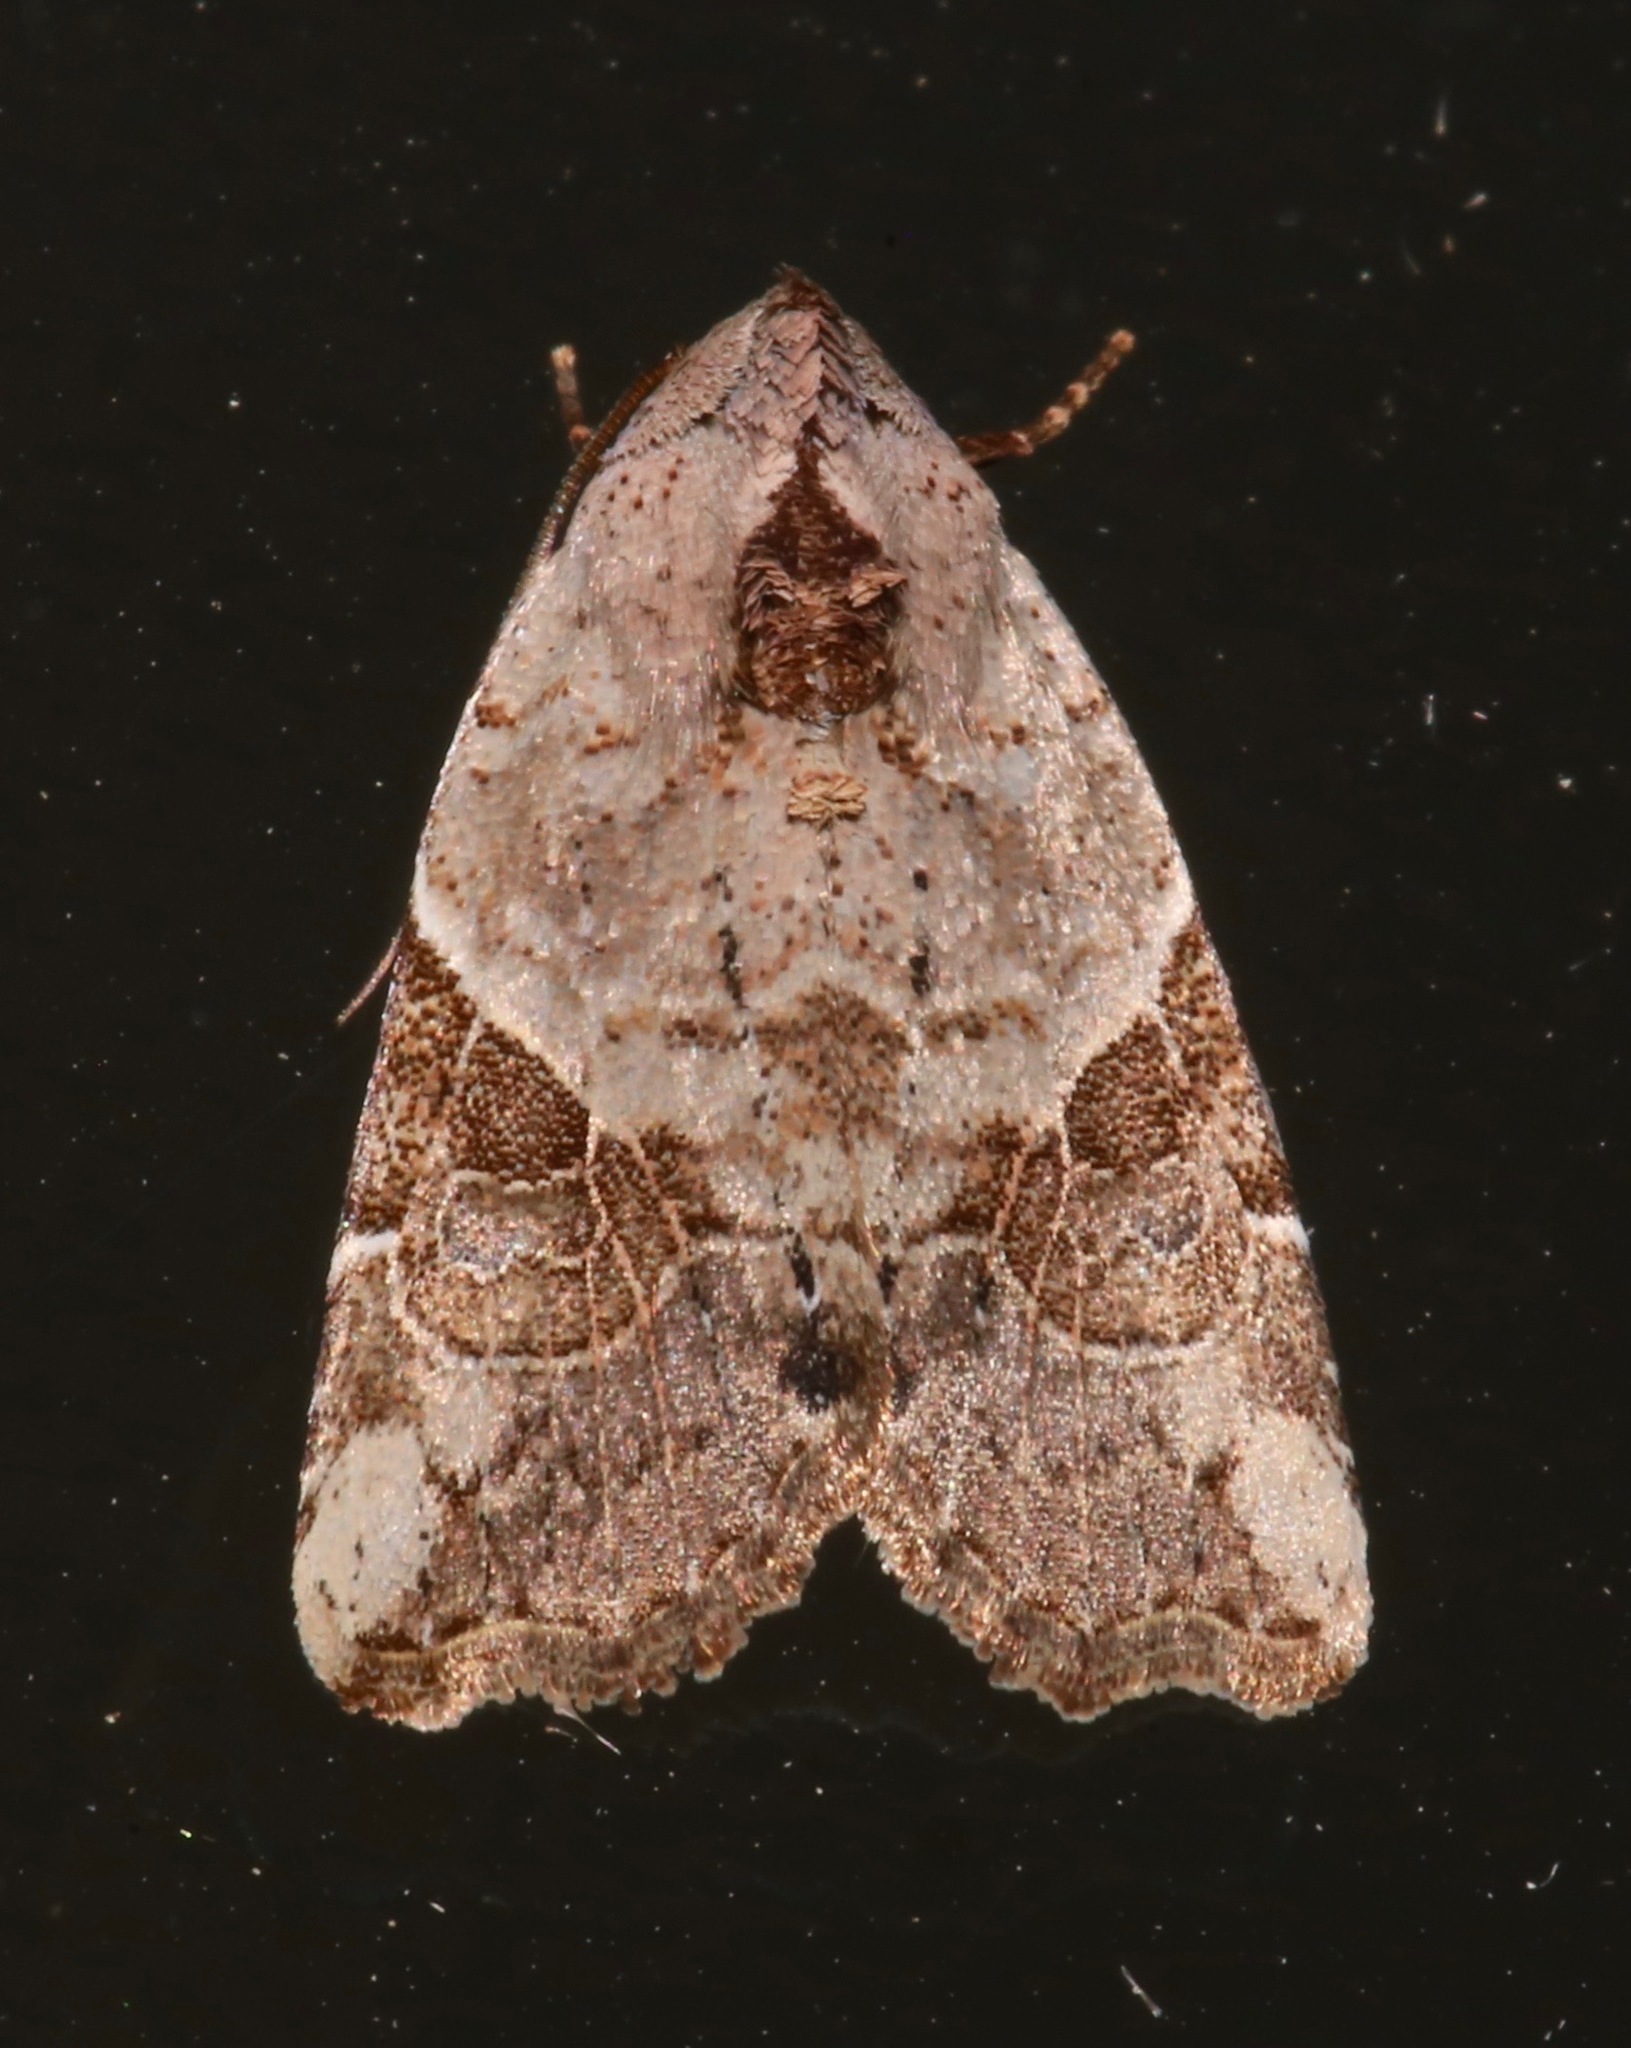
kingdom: Animalia
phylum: Arthropoda
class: Insecta
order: Lepidoptera
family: Noctuidae
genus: Gonodes
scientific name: Gonodes liquida
